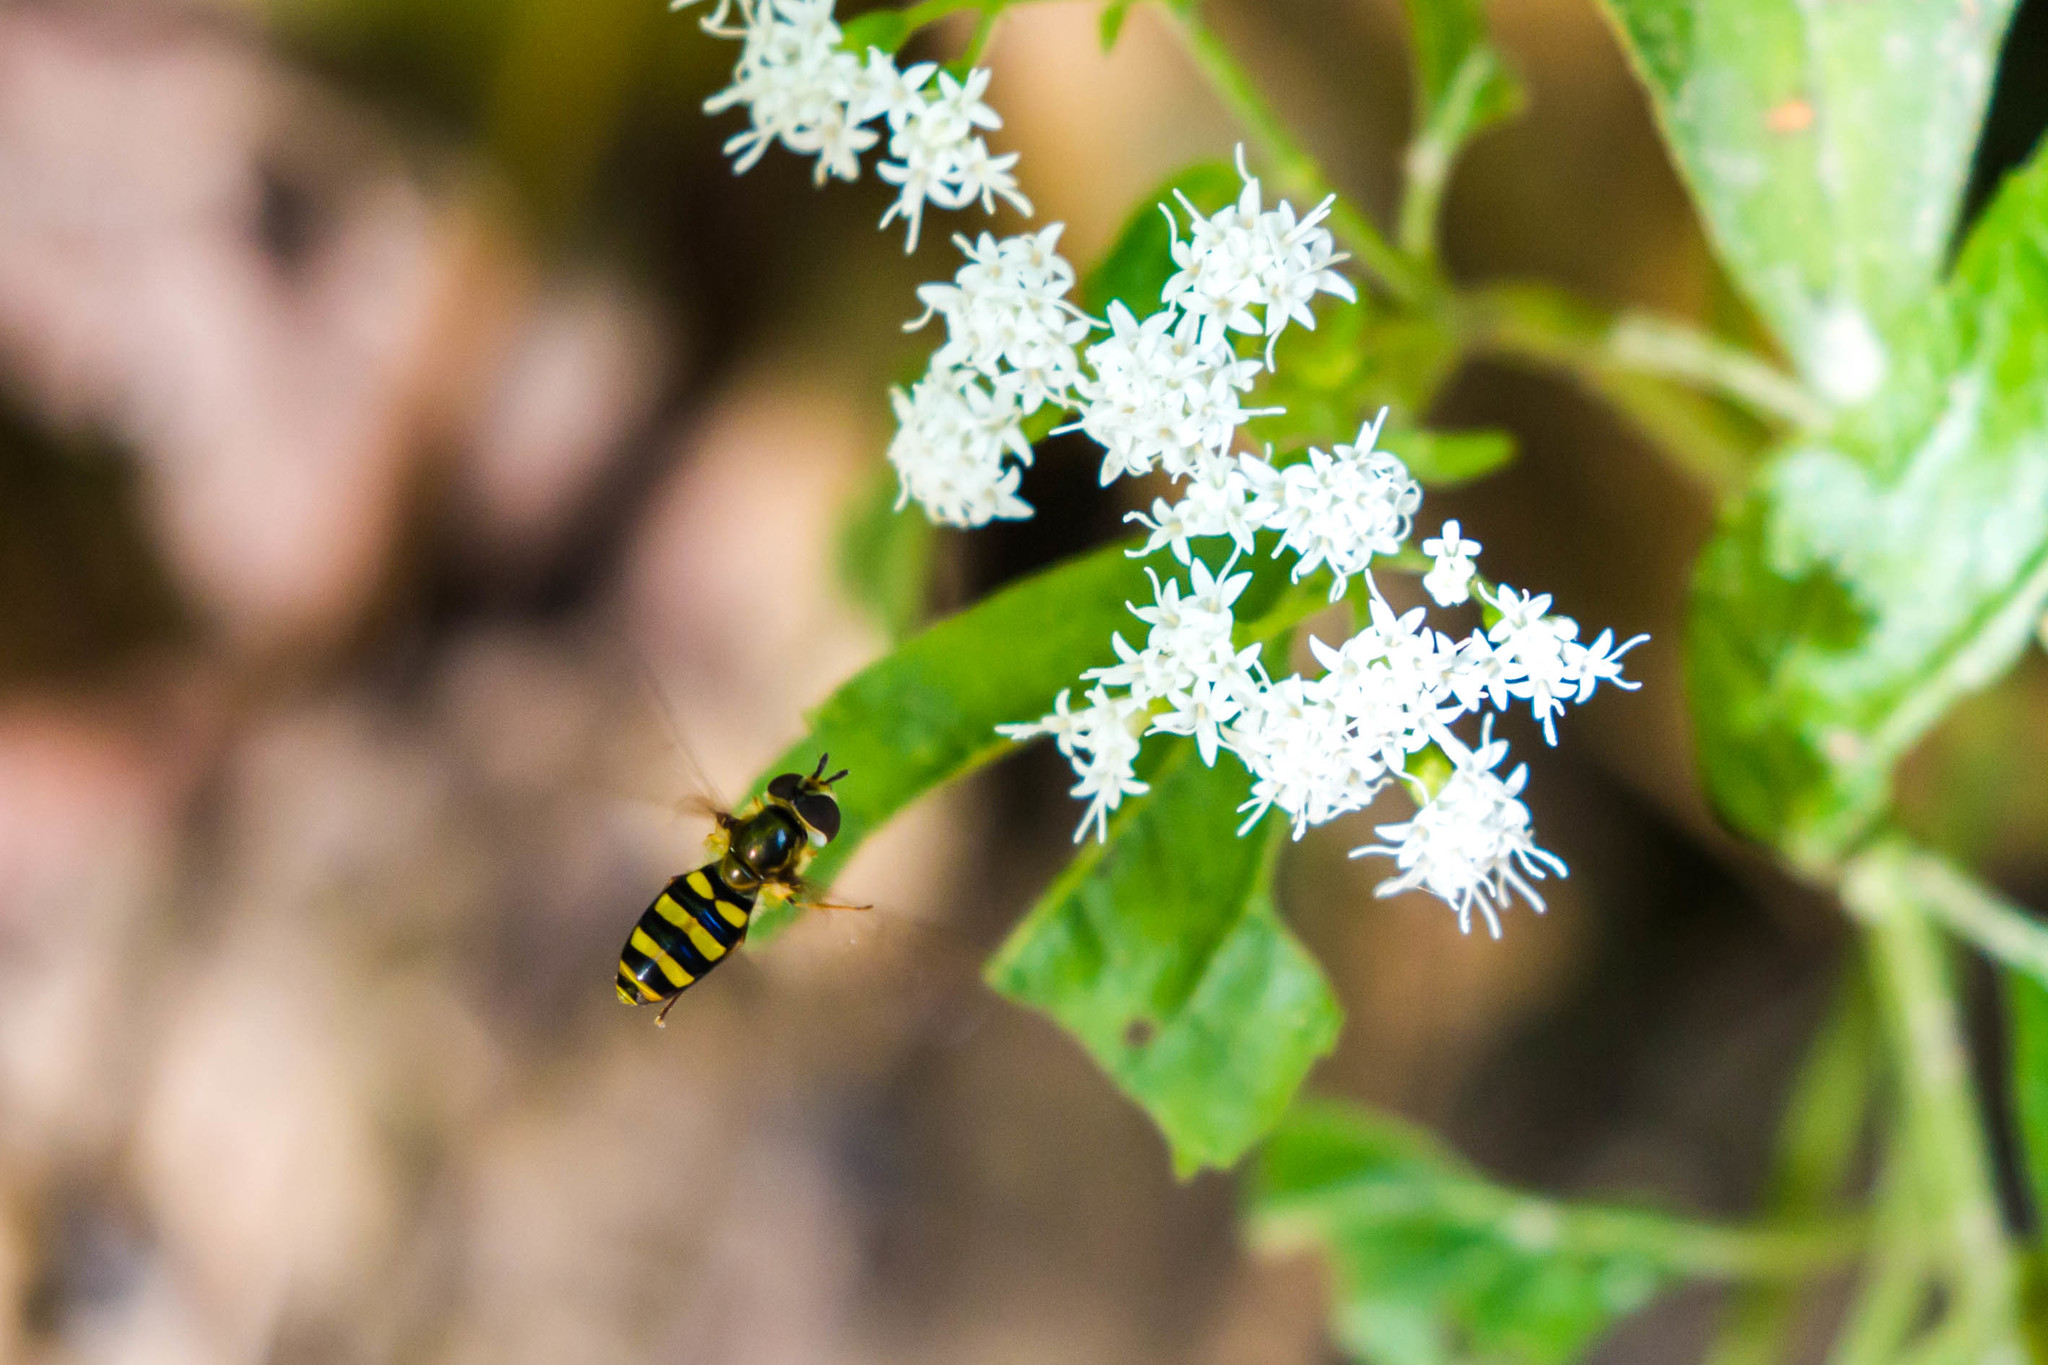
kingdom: Animalia
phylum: Arthropoda
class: Insecta
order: Diptera
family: Syrphidae
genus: Eupeodes
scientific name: Eupeodes
